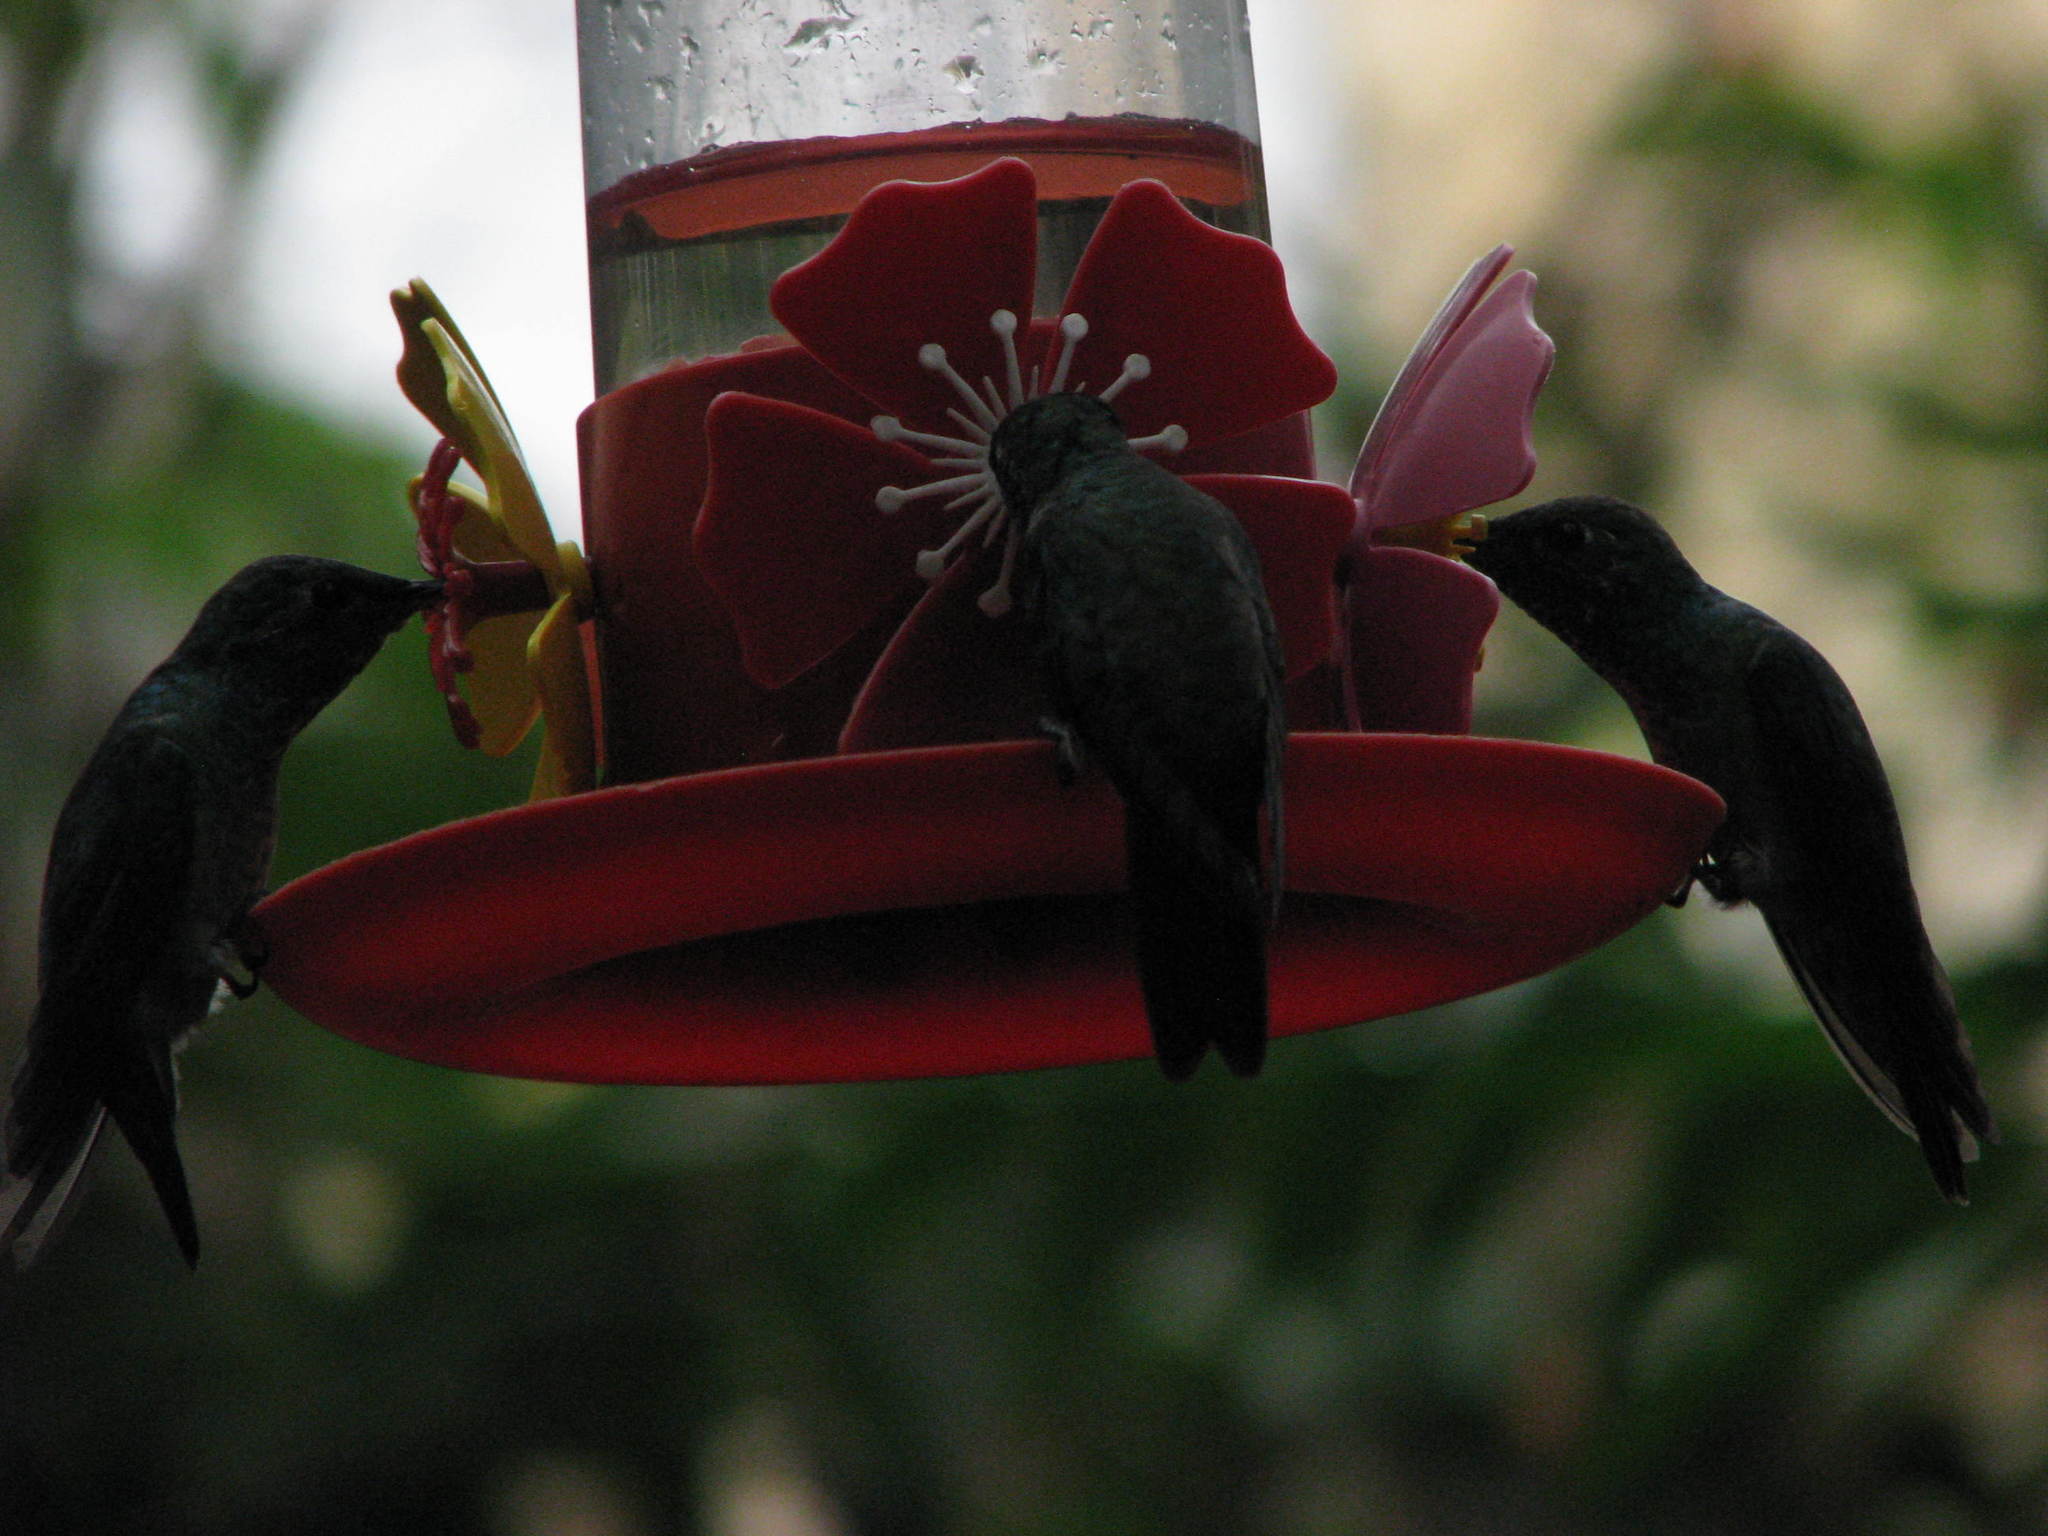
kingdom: Animalia
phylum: Chordata
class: Aves
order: Apodiformes
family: Trochilidae
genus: Chrysuronia
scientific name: Chrysuronia versicolor
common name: Versicolored emerald
